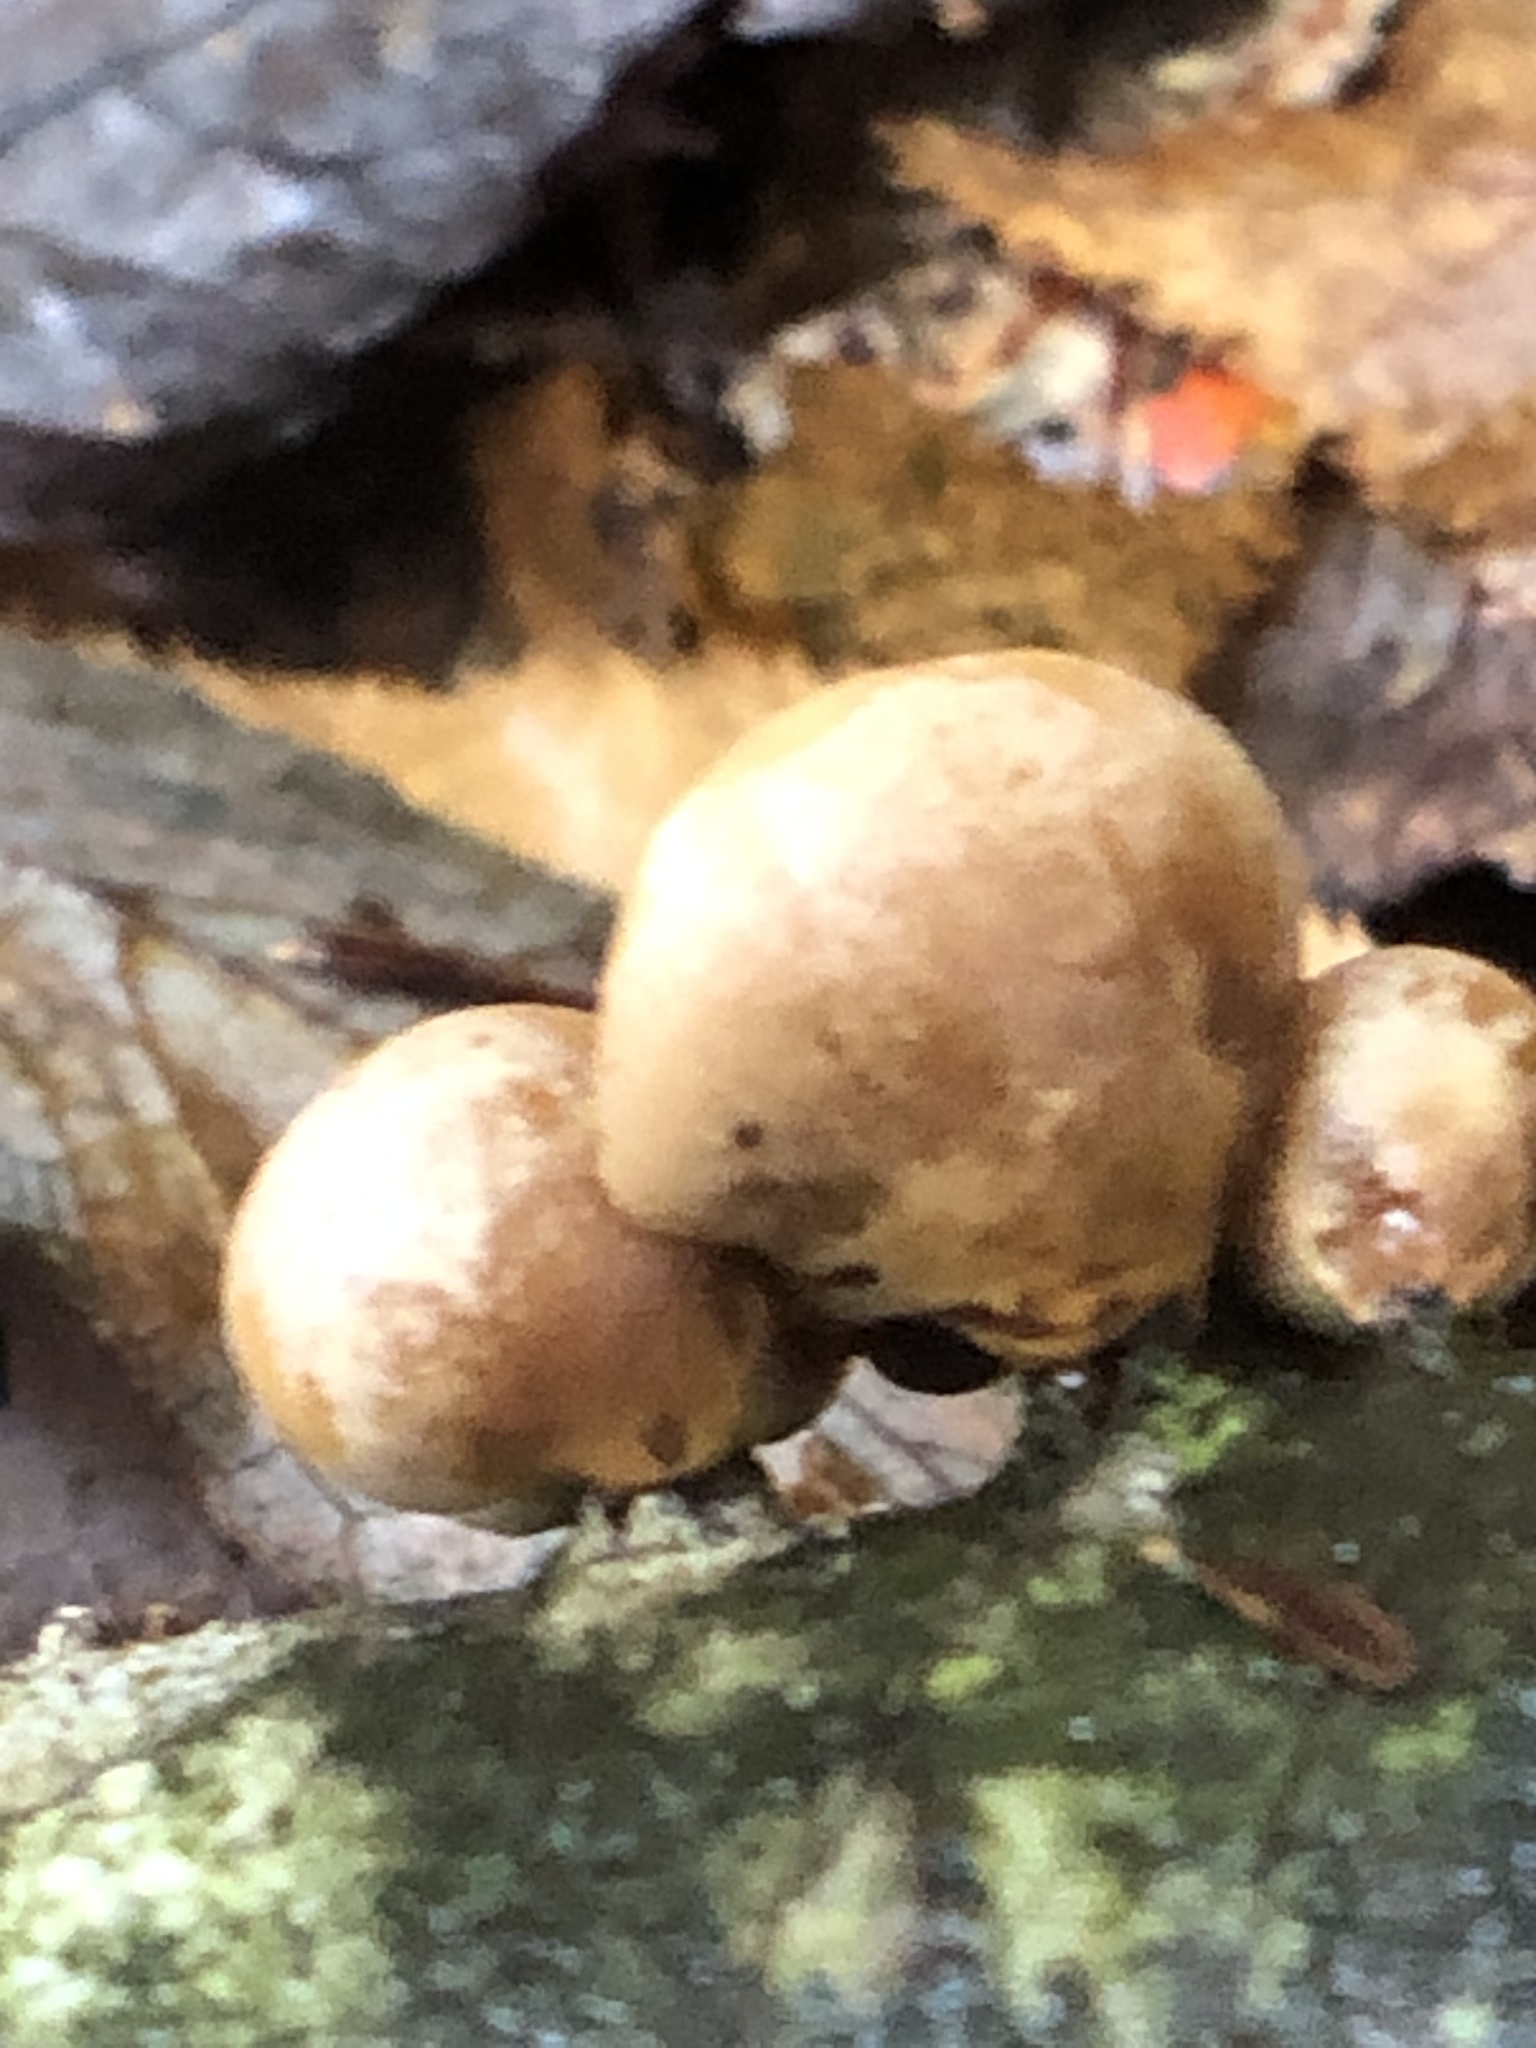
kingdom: Fungi
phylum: Basidiomycota
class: Agaricomycetes
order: Agaricales
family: Mycenaceae
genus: Tectella
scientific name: Tectella patellaris
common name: Veiled panus
